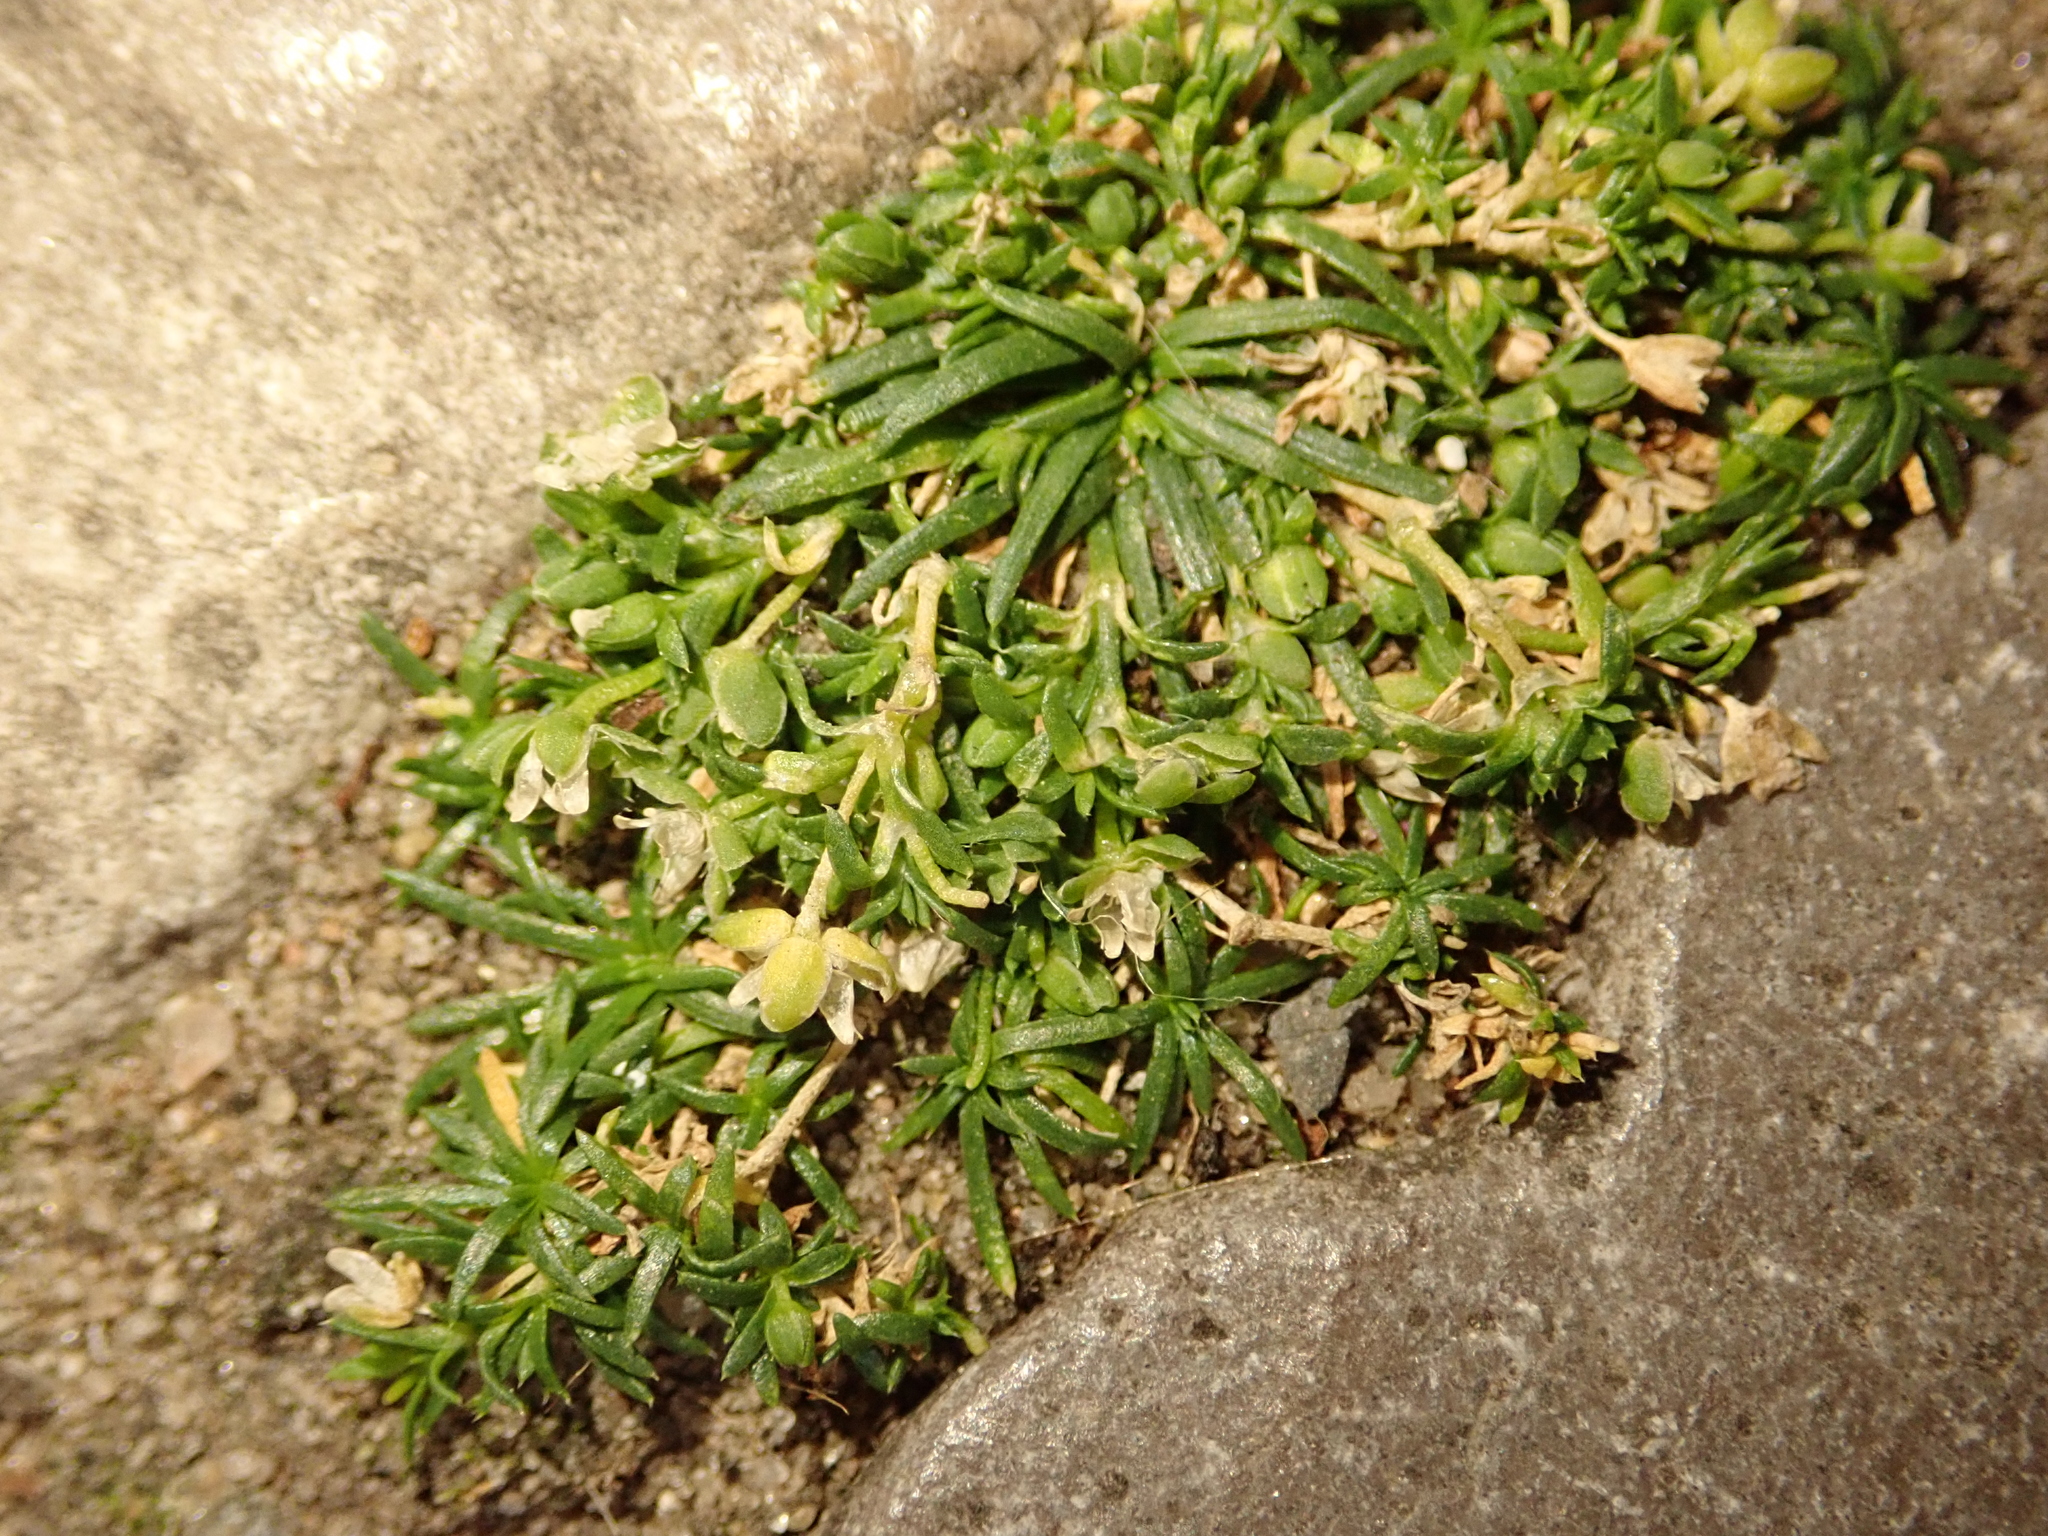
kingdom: Plantae
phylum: Tracheophyta
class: Magnoliopsida
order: Caryophyllales
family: Caryophyllaceae
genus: Sagina
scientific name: Sagina procumbens
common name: Procumbent pearlwort
